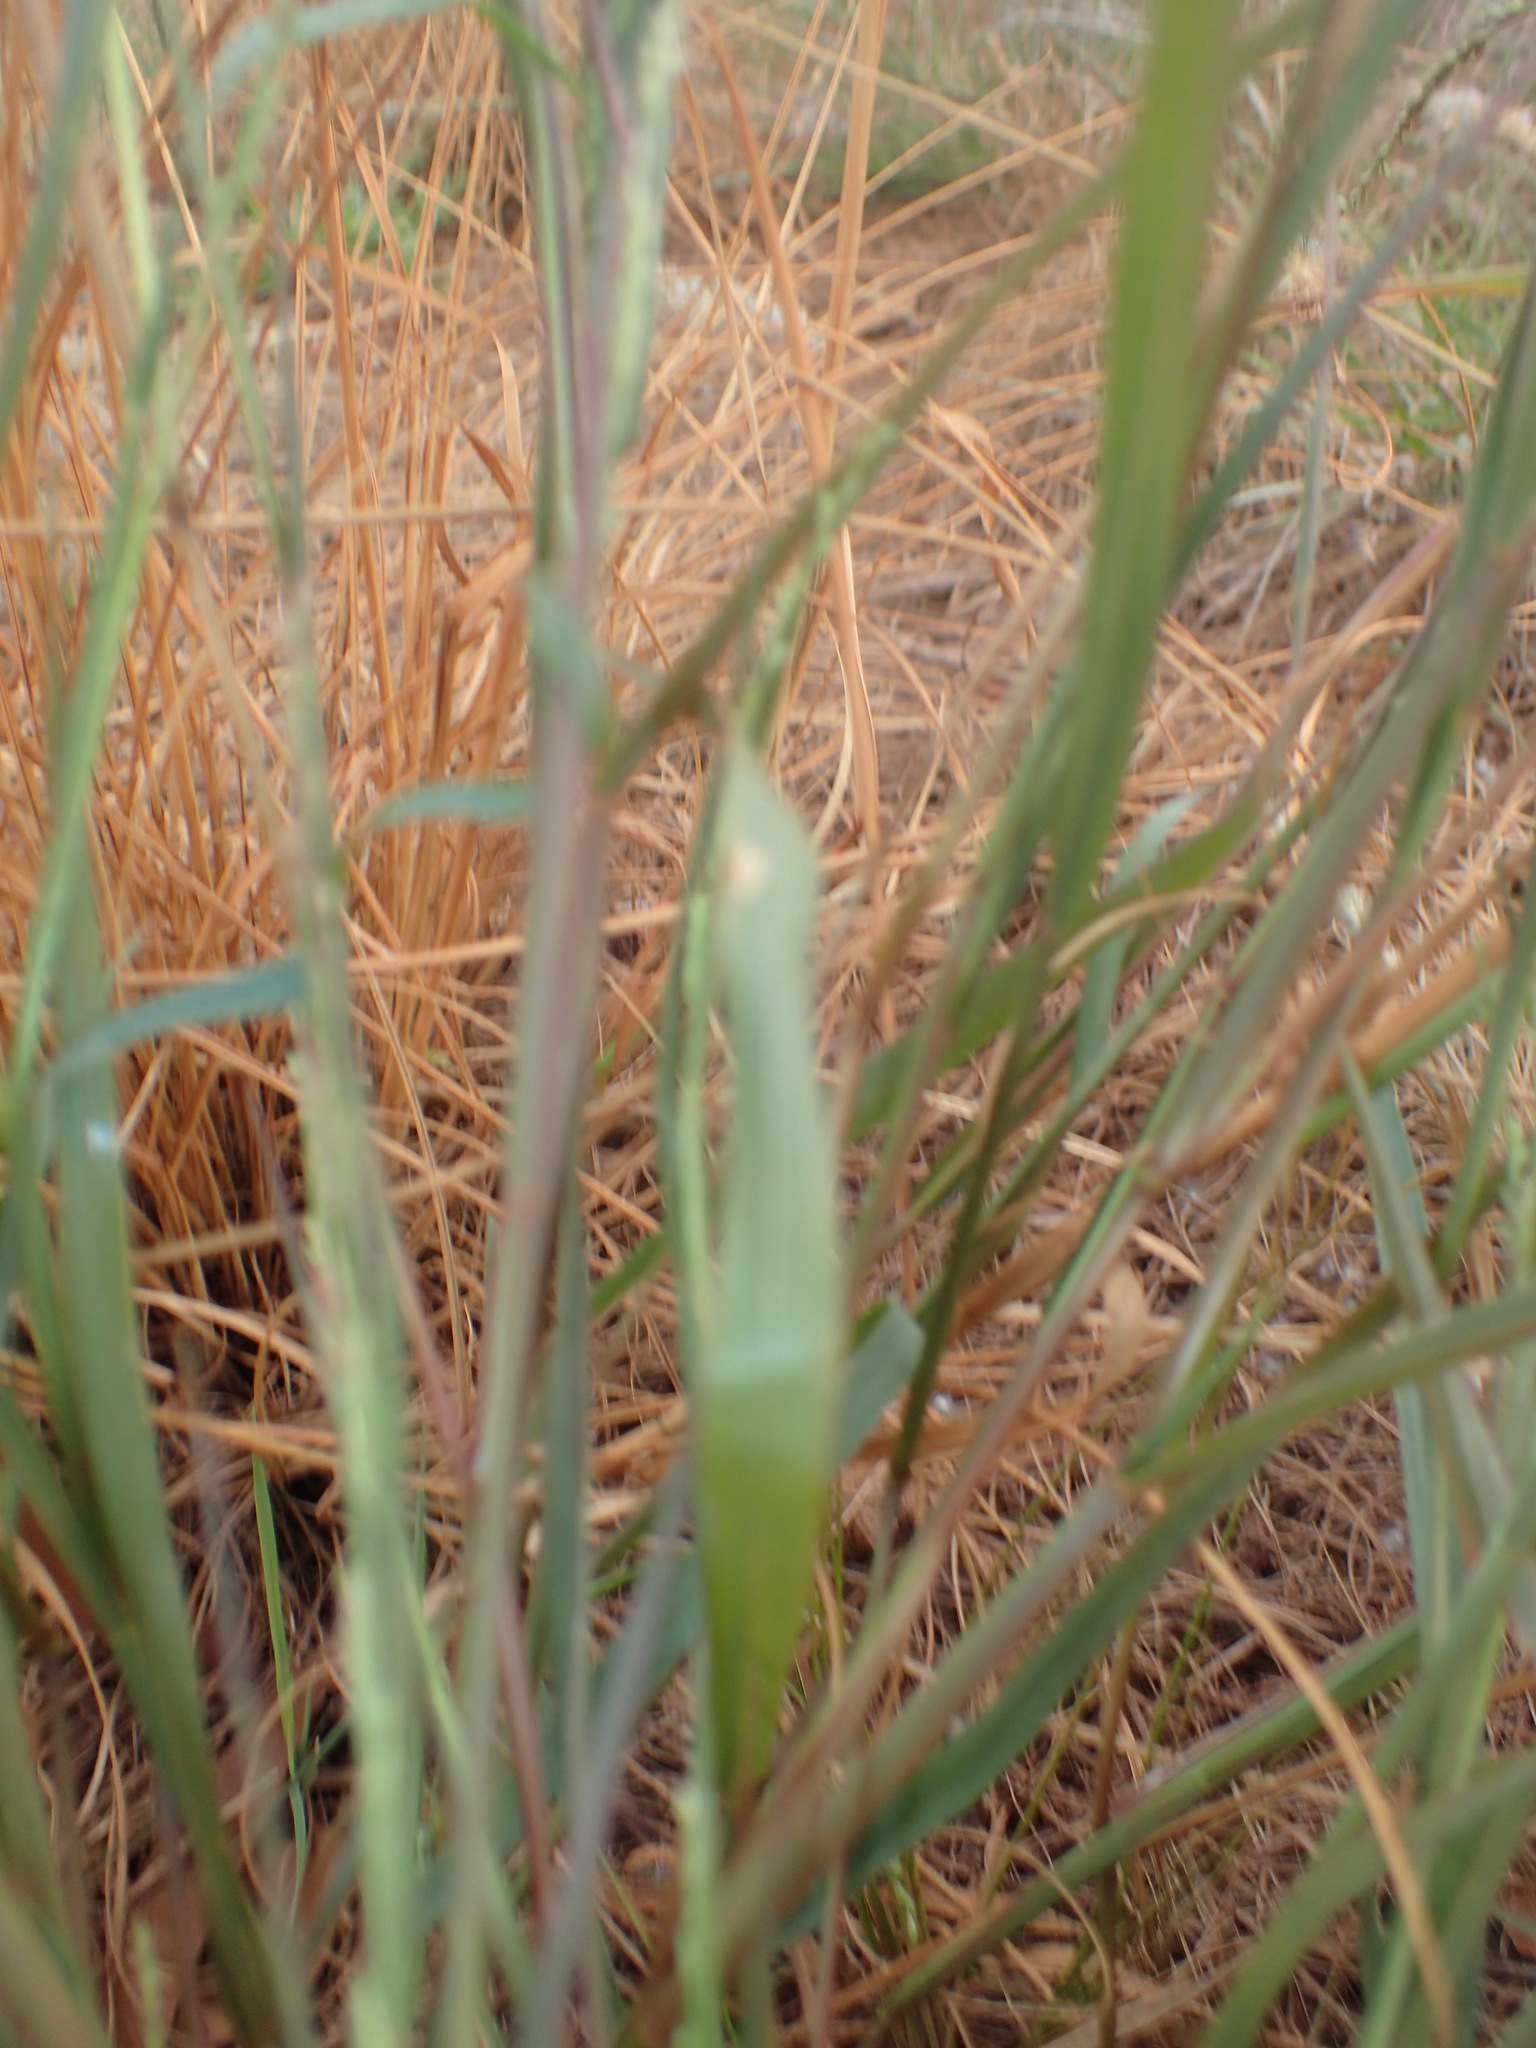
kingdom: Plantae
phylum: Tracheophyta
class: Liliopsida
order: Poales
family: Poaceae
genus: Setaria
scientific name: Setaria clementii
